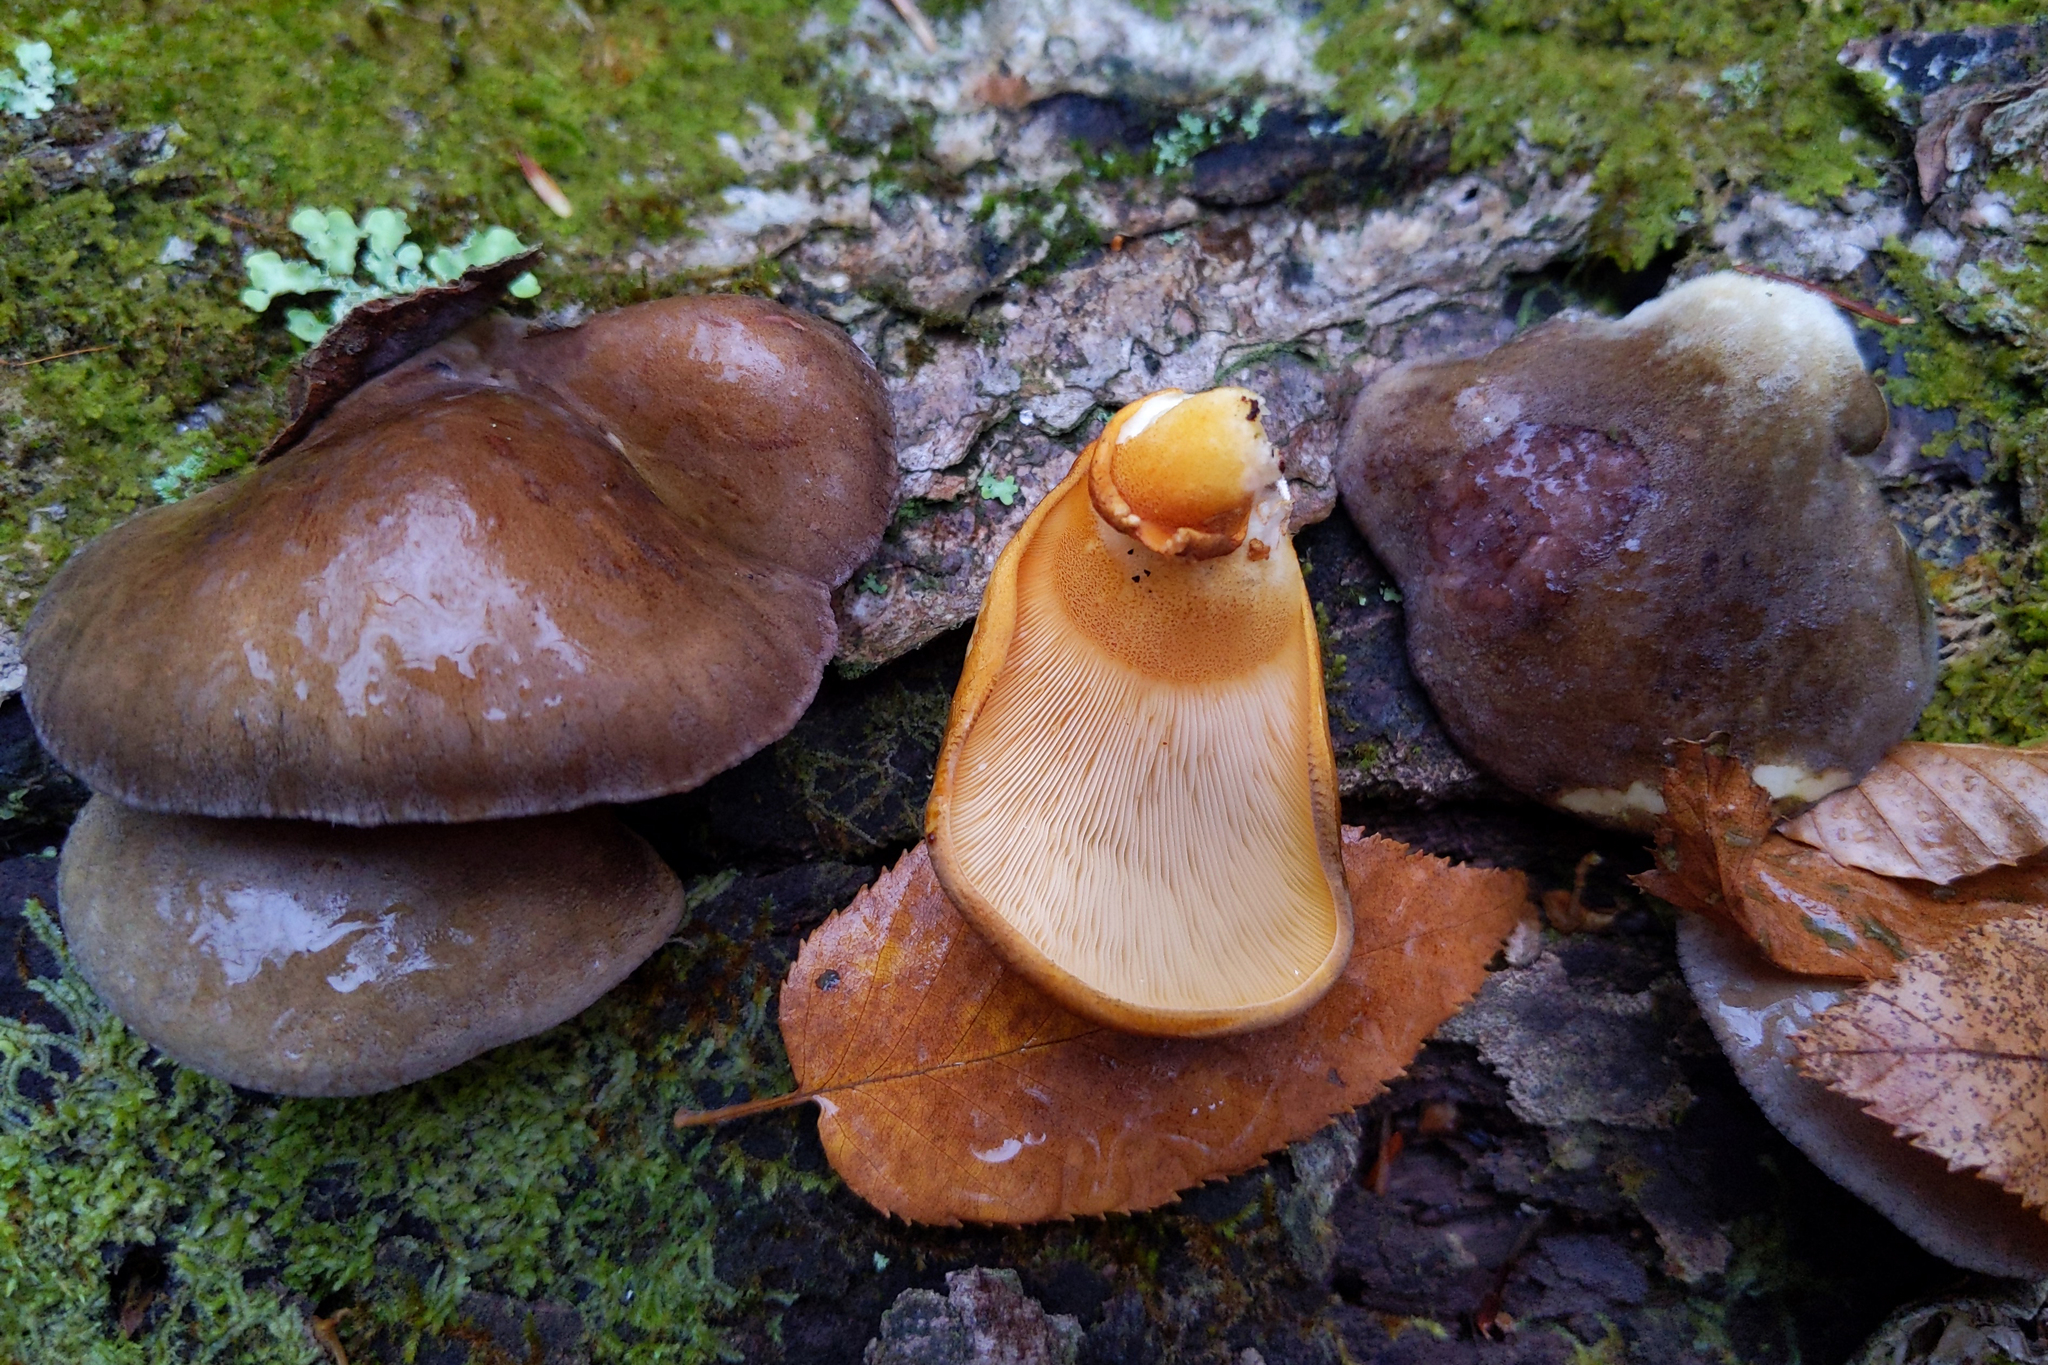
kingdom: Fungi
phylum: Basidiomycota
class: Agaricomycetes
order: Agaricales
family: Sarcomyxaceae
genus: Sarcomyxa
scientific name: Sarcomyxa serotina
